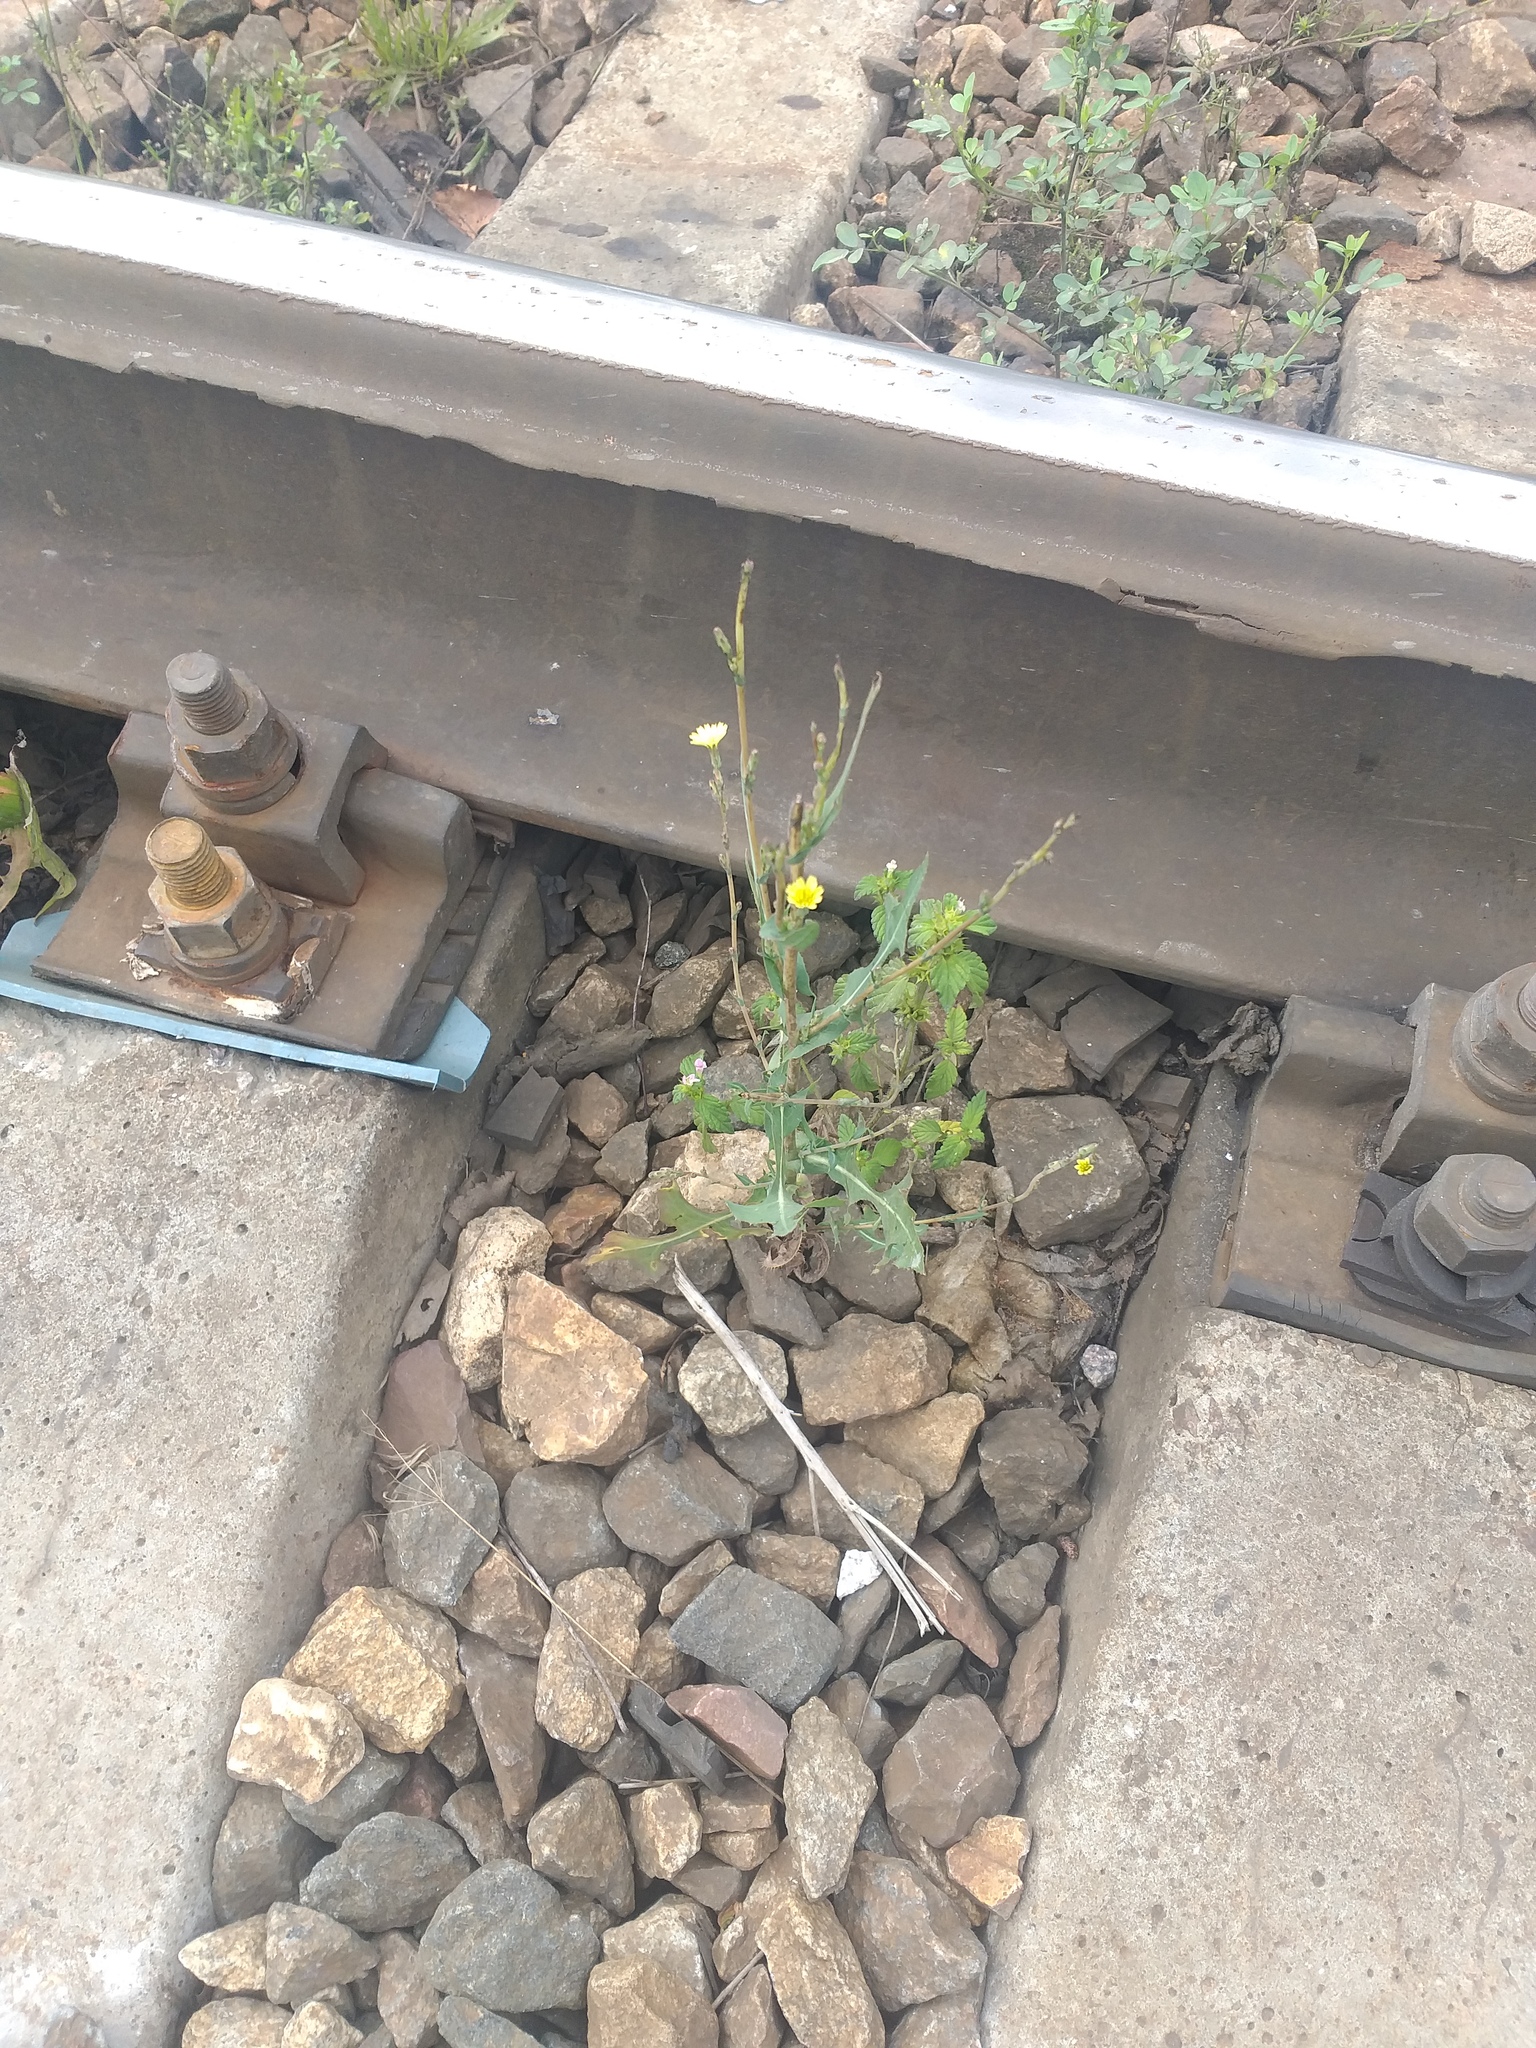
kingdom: Plantae
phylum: Tracheophyta
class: Magnoliopsida
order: Asterales
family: Asteraceae
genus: Lactuca
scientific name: Lactuca serriola
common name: Prickly lettuce
